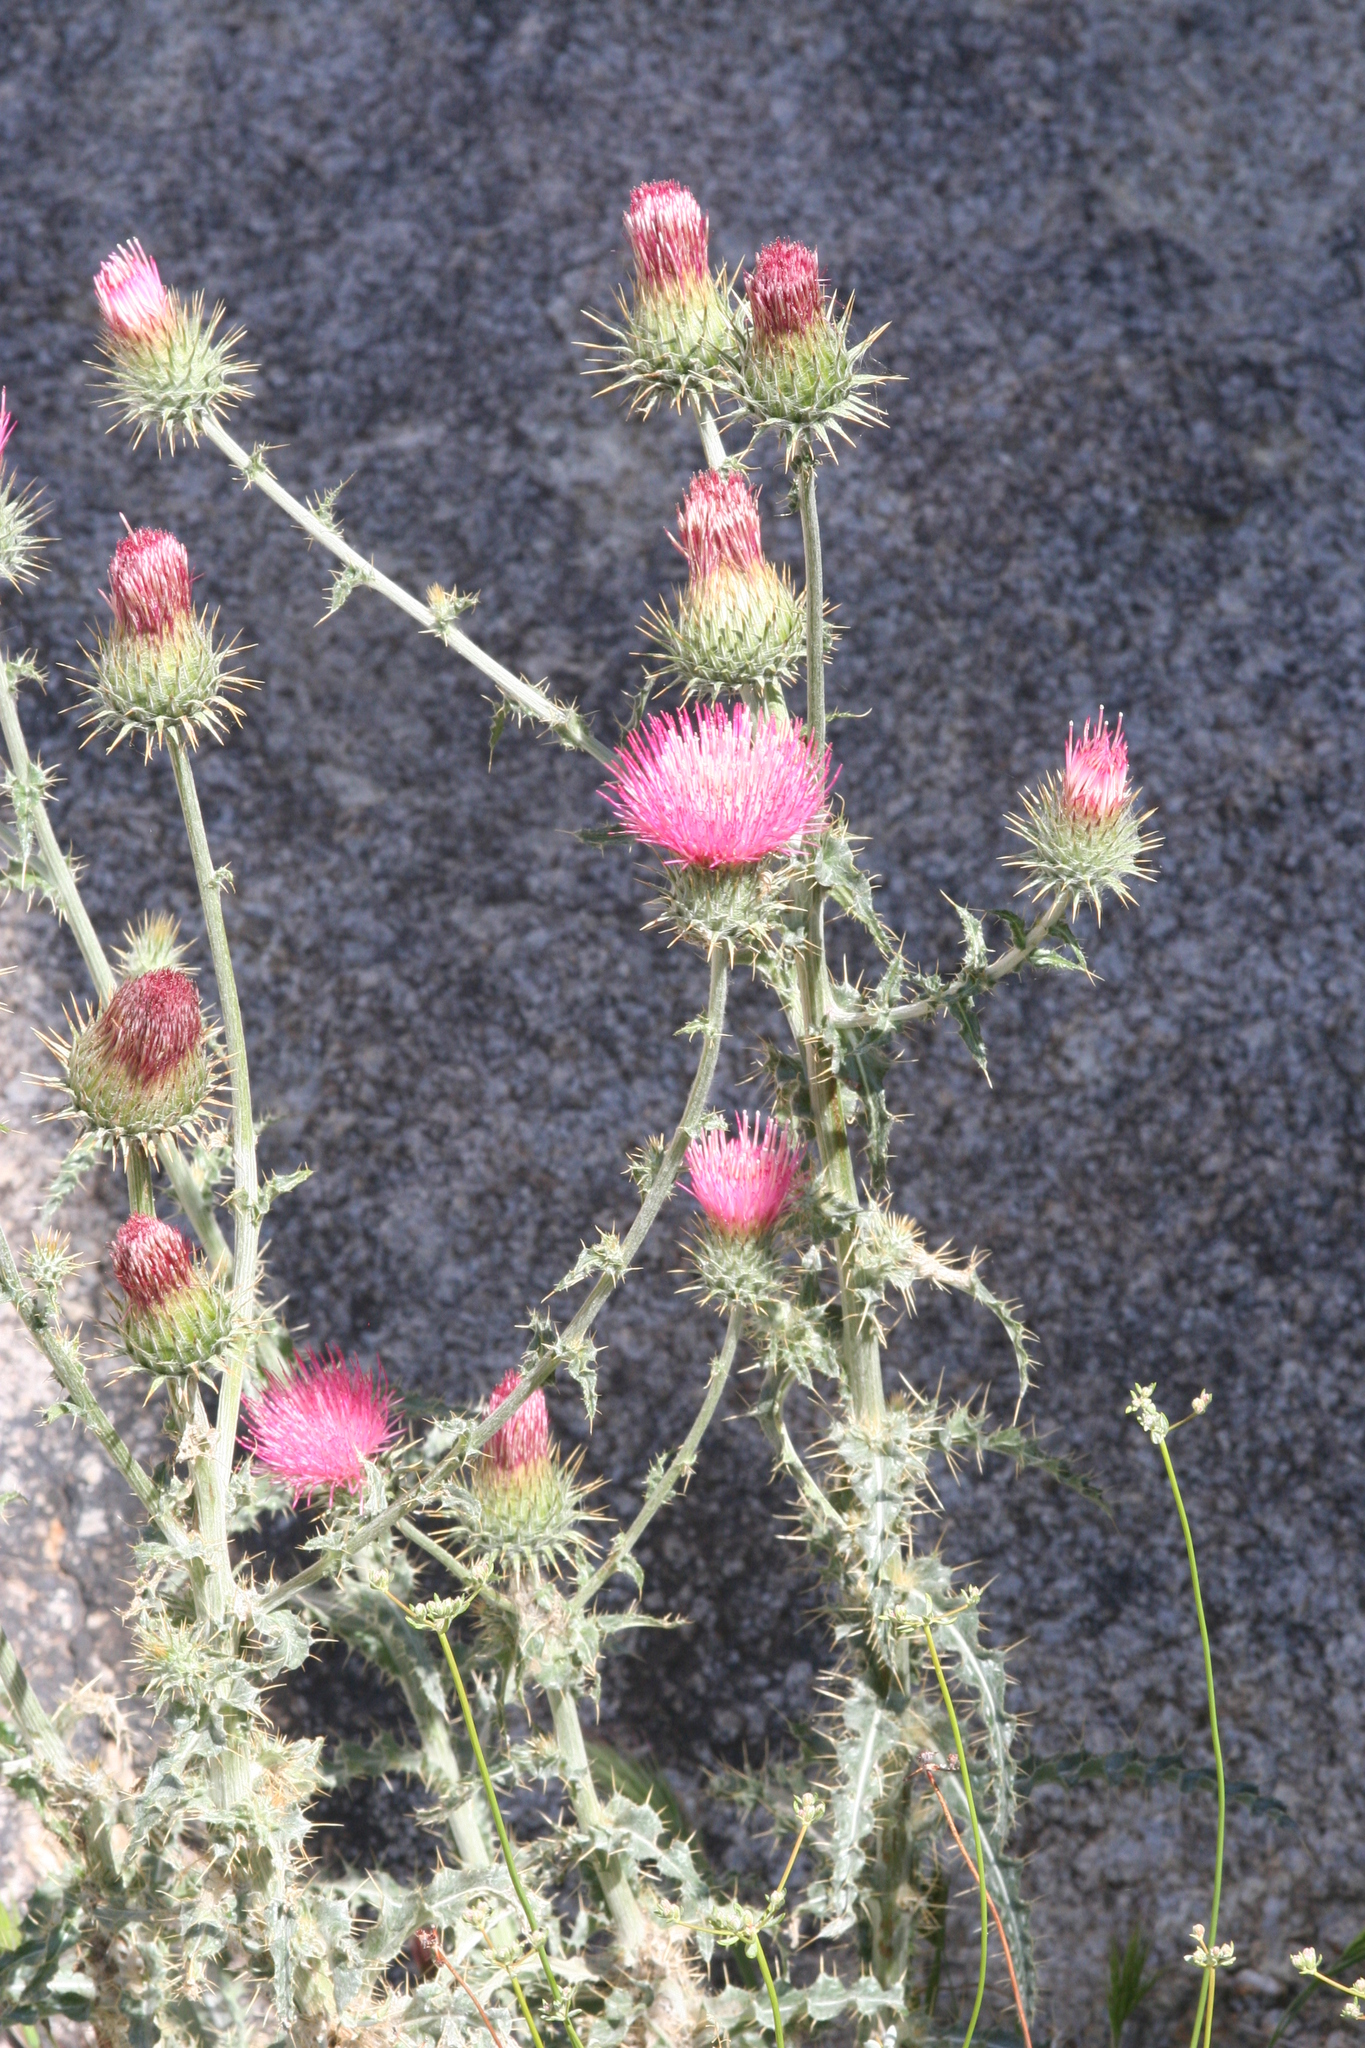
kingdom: Plantae
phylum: Tracheophyta
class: Magnoliopsida
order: Asterales
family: Asteraceae
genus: Cirsium
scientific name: Cirsium occidentale
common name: Western thistle
